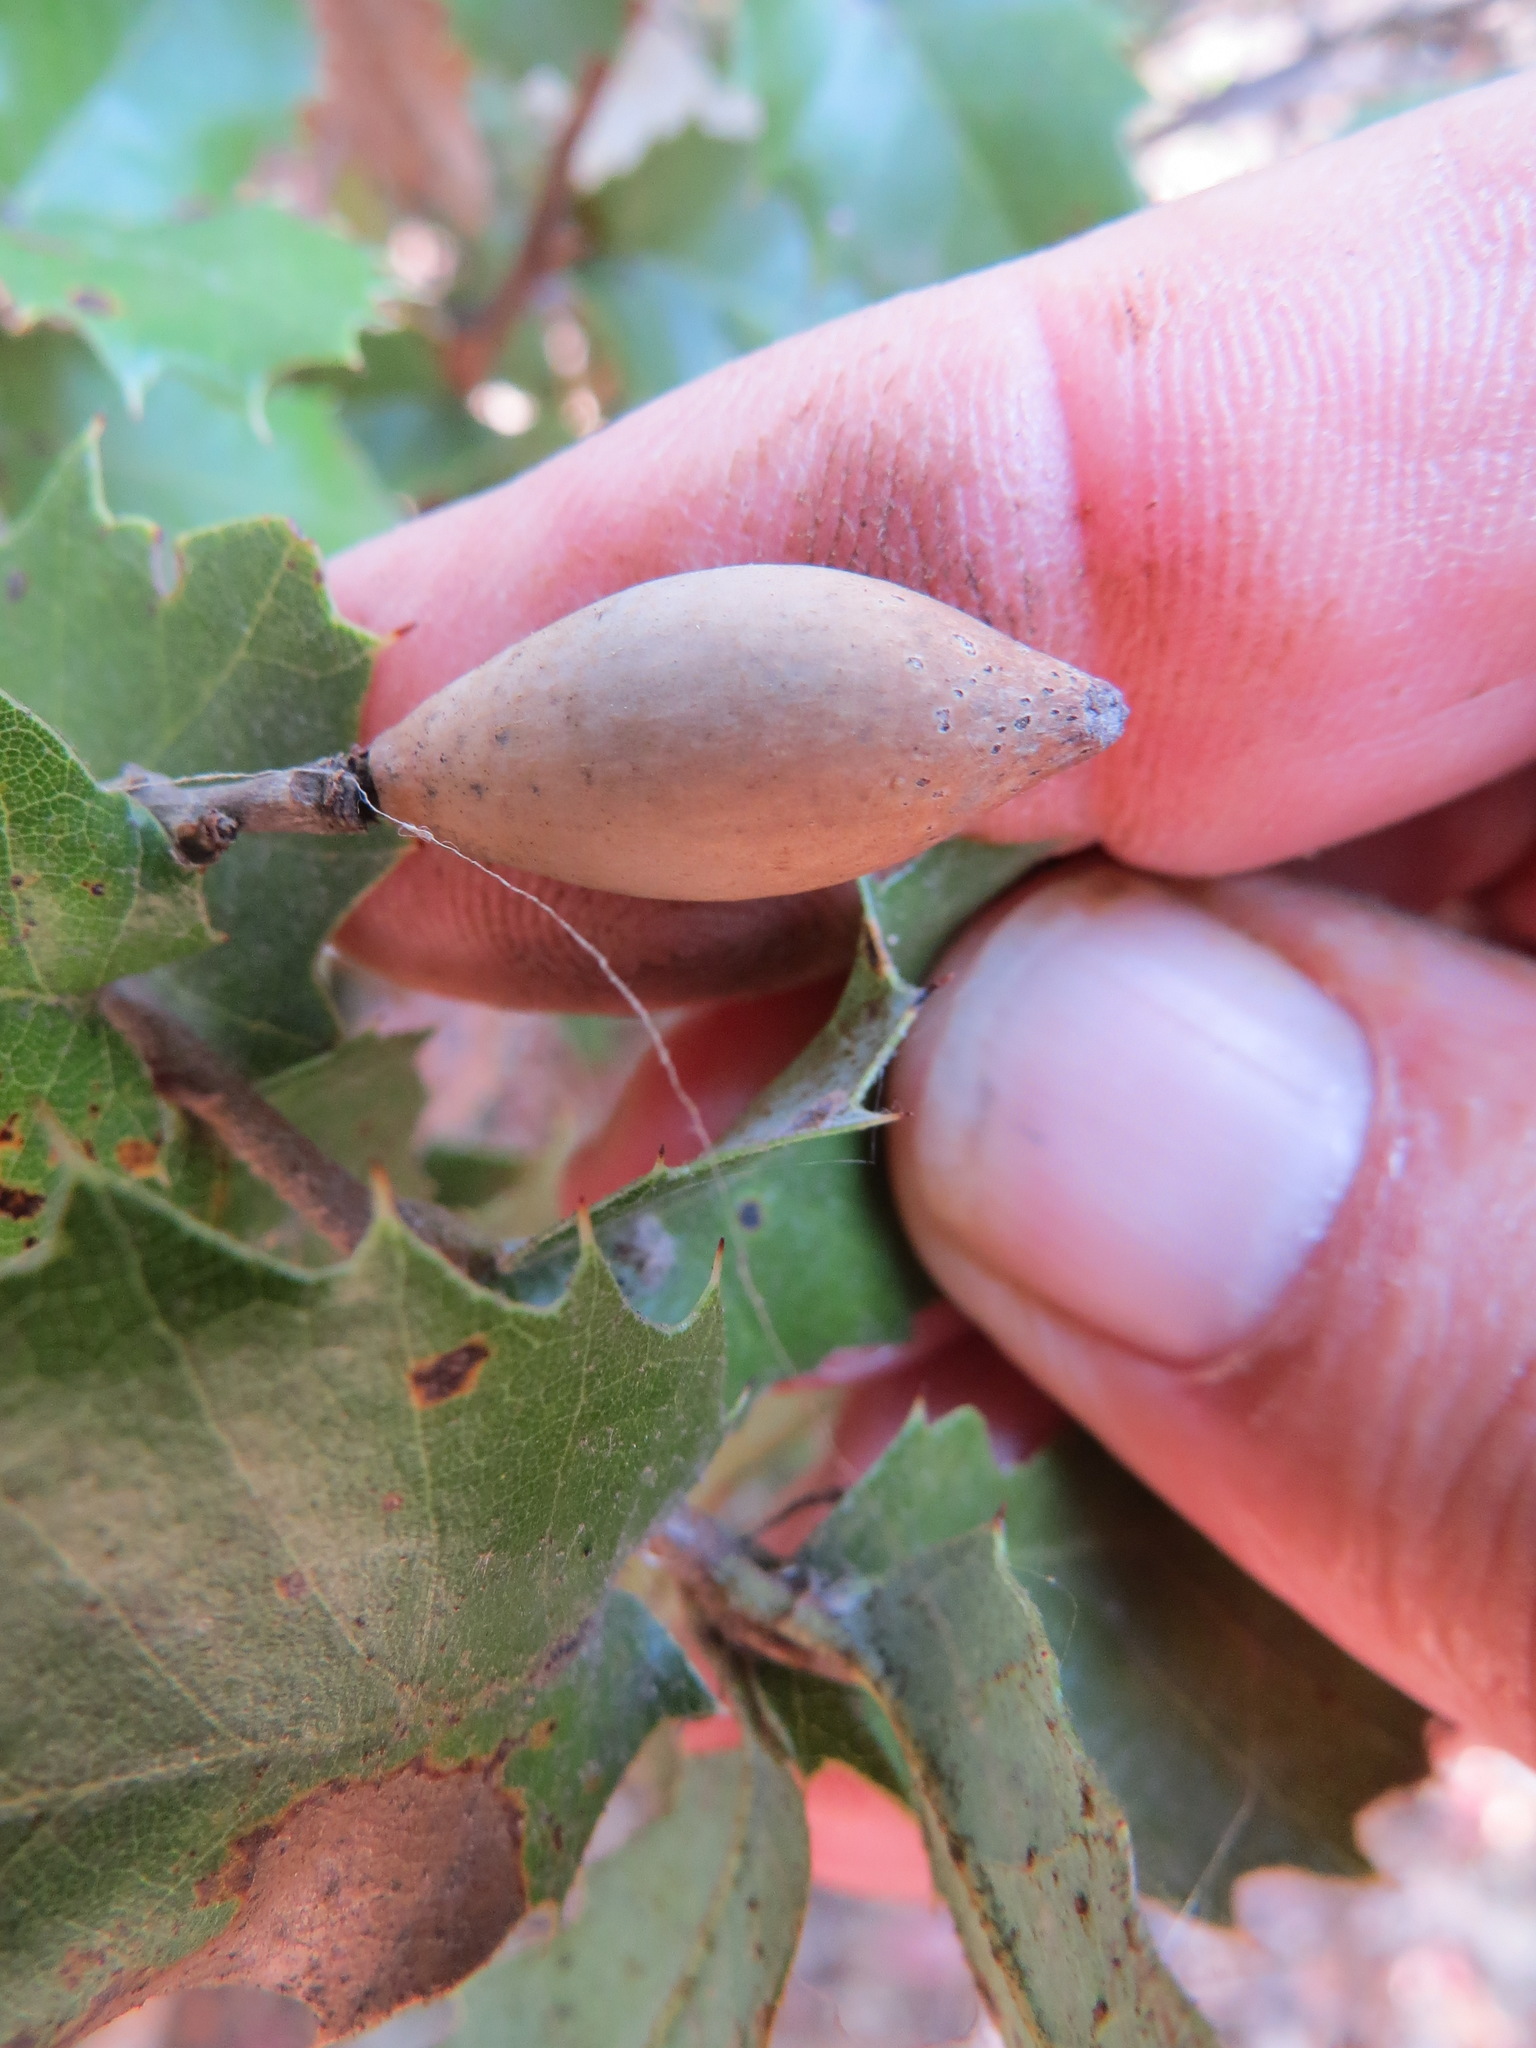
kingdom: Animalia
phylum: Arthropoda
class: Insecta
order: Hymenoptera
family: Cynipidae
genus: Heteroecus
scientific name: Heteroecus pacificus
